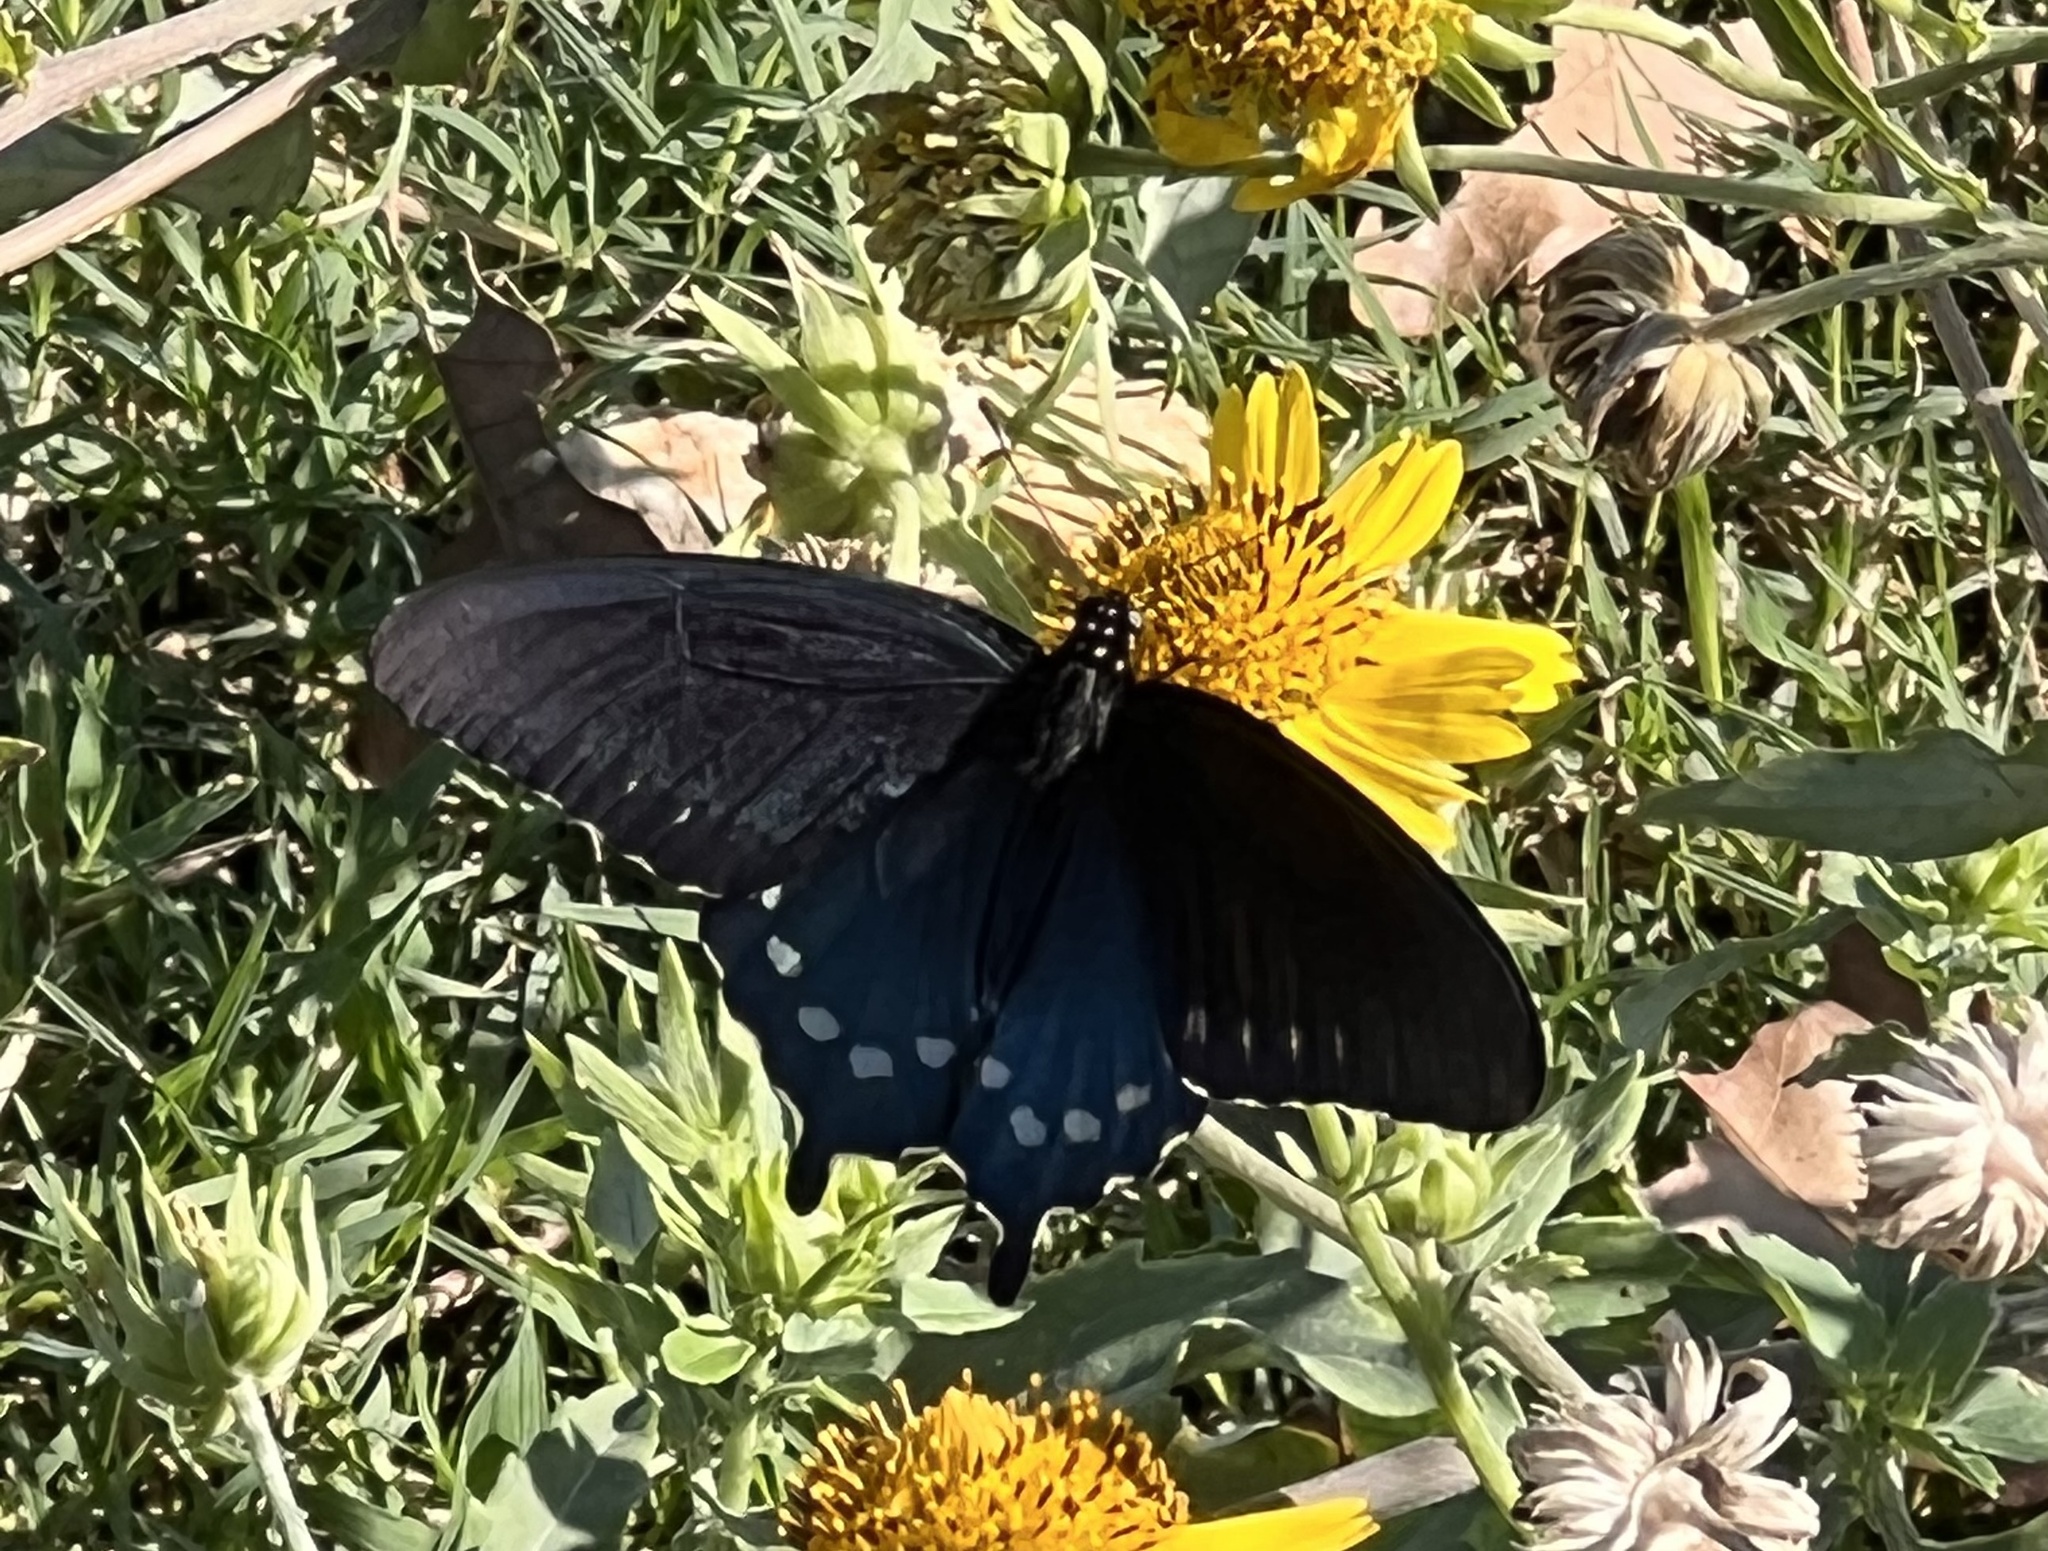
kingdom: Animalia
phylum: Arthropoda
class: Insecta
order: Lepidoptera
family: Papilionidae
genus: Battus
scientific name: Battus philenor
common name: Pipevine swallowtail
